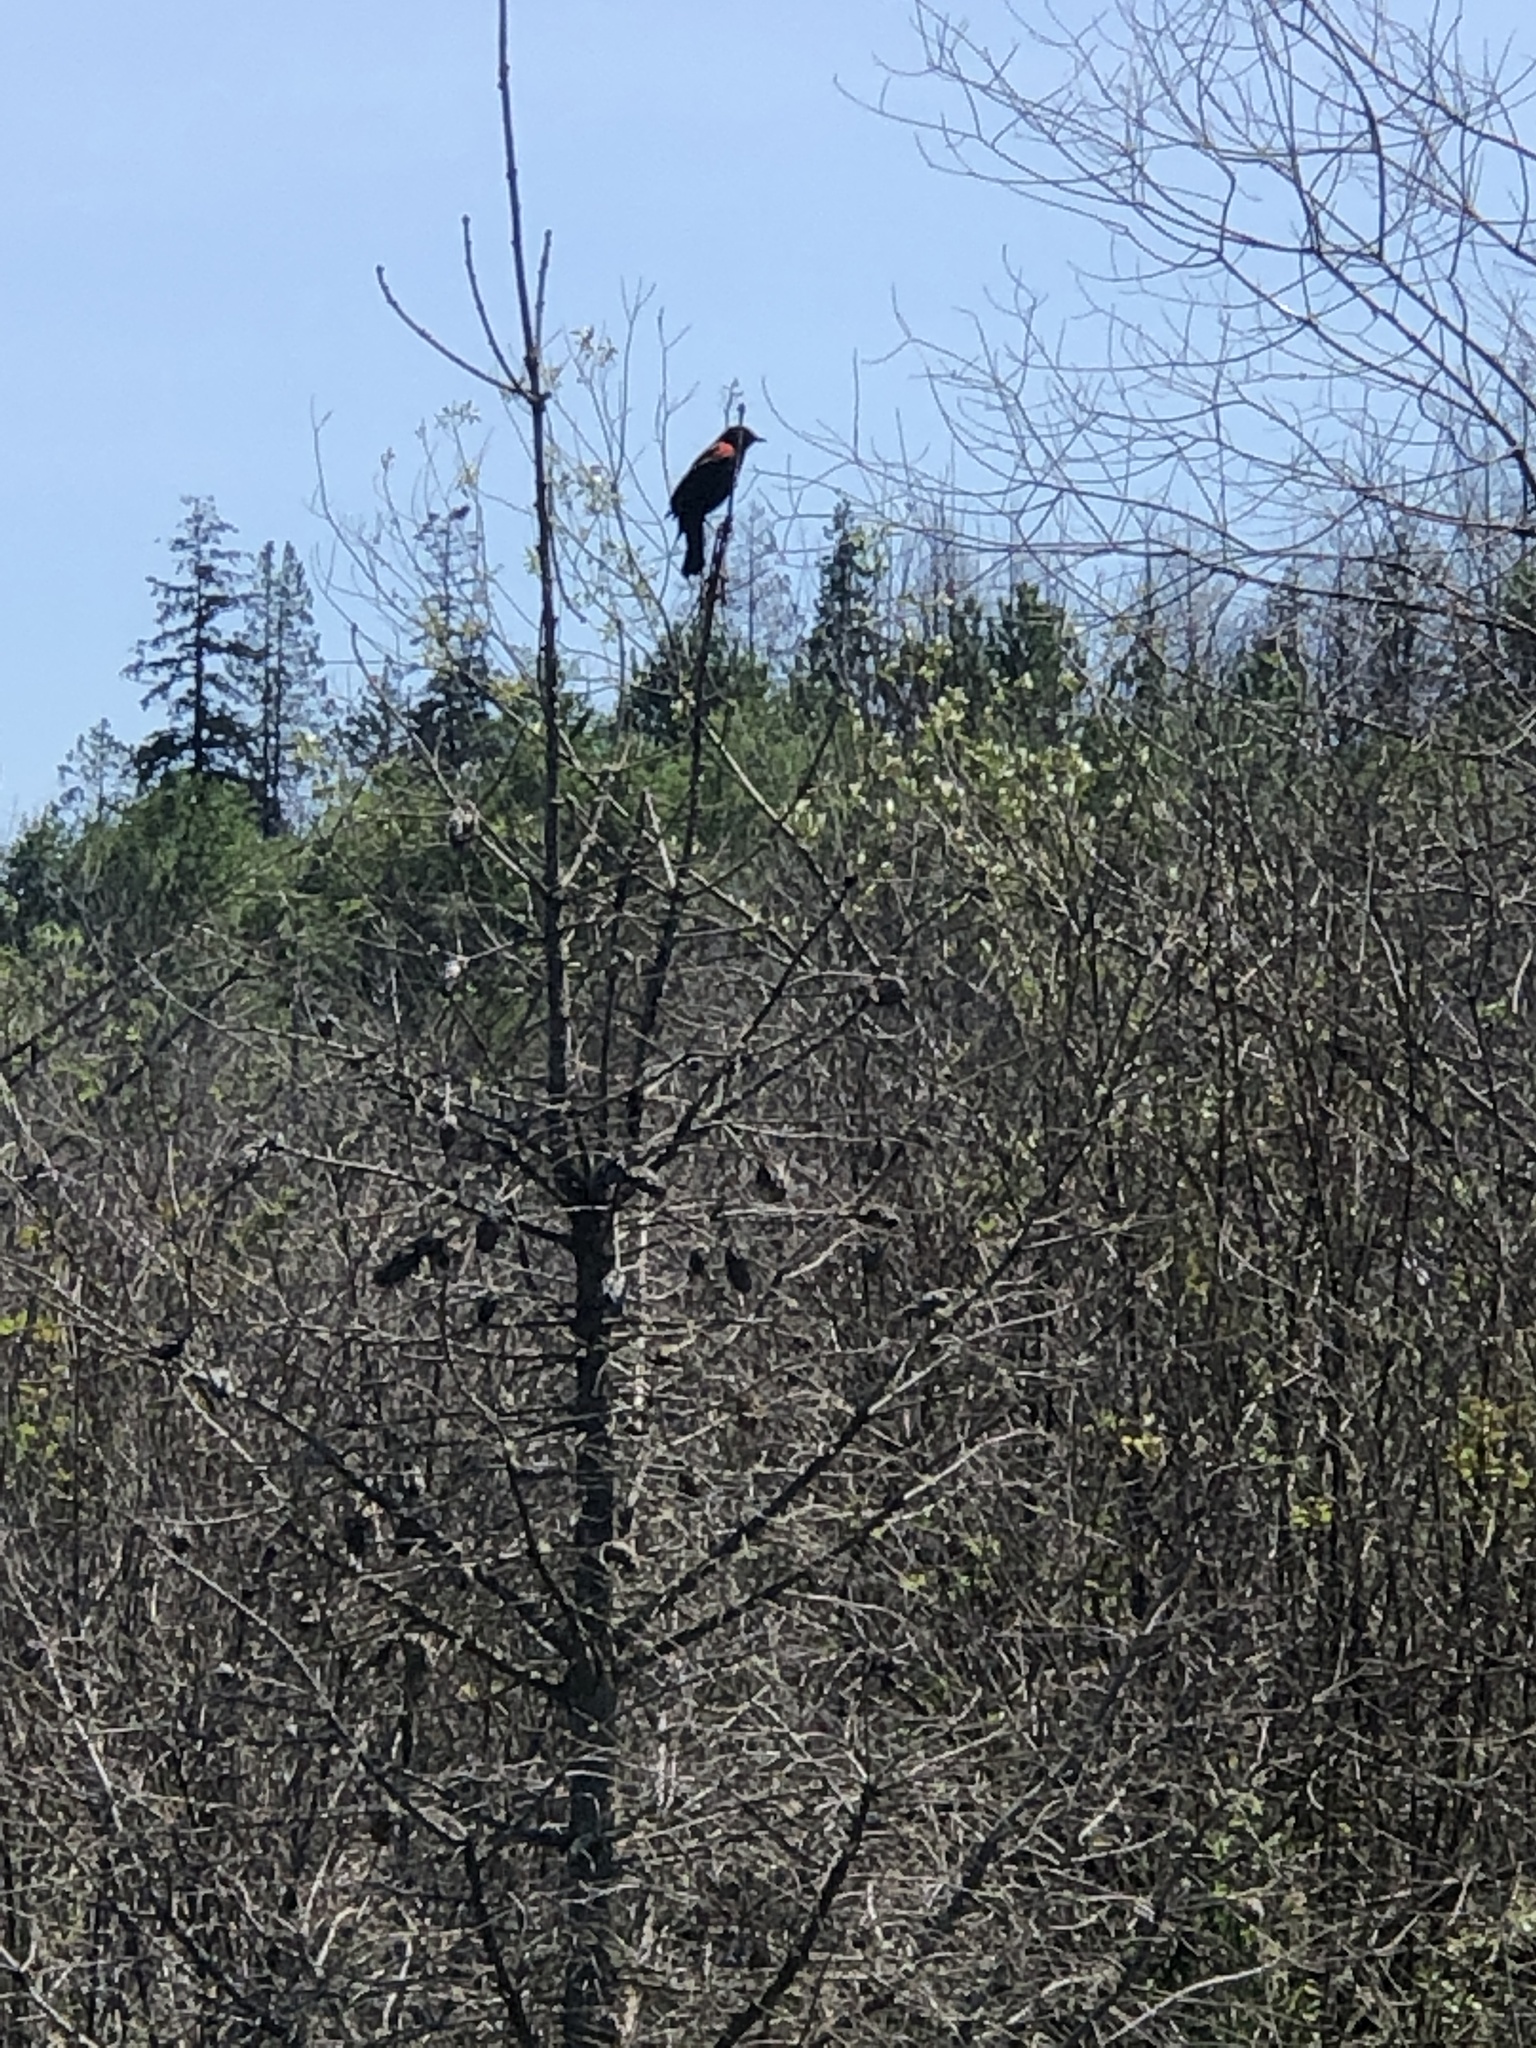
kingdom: Animalia
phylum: Chordata
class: Aves
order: Passeriformes
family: Icteridae
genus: Agelaius
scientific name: Agelaius phoeniceus
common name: Red-winged blackbird
